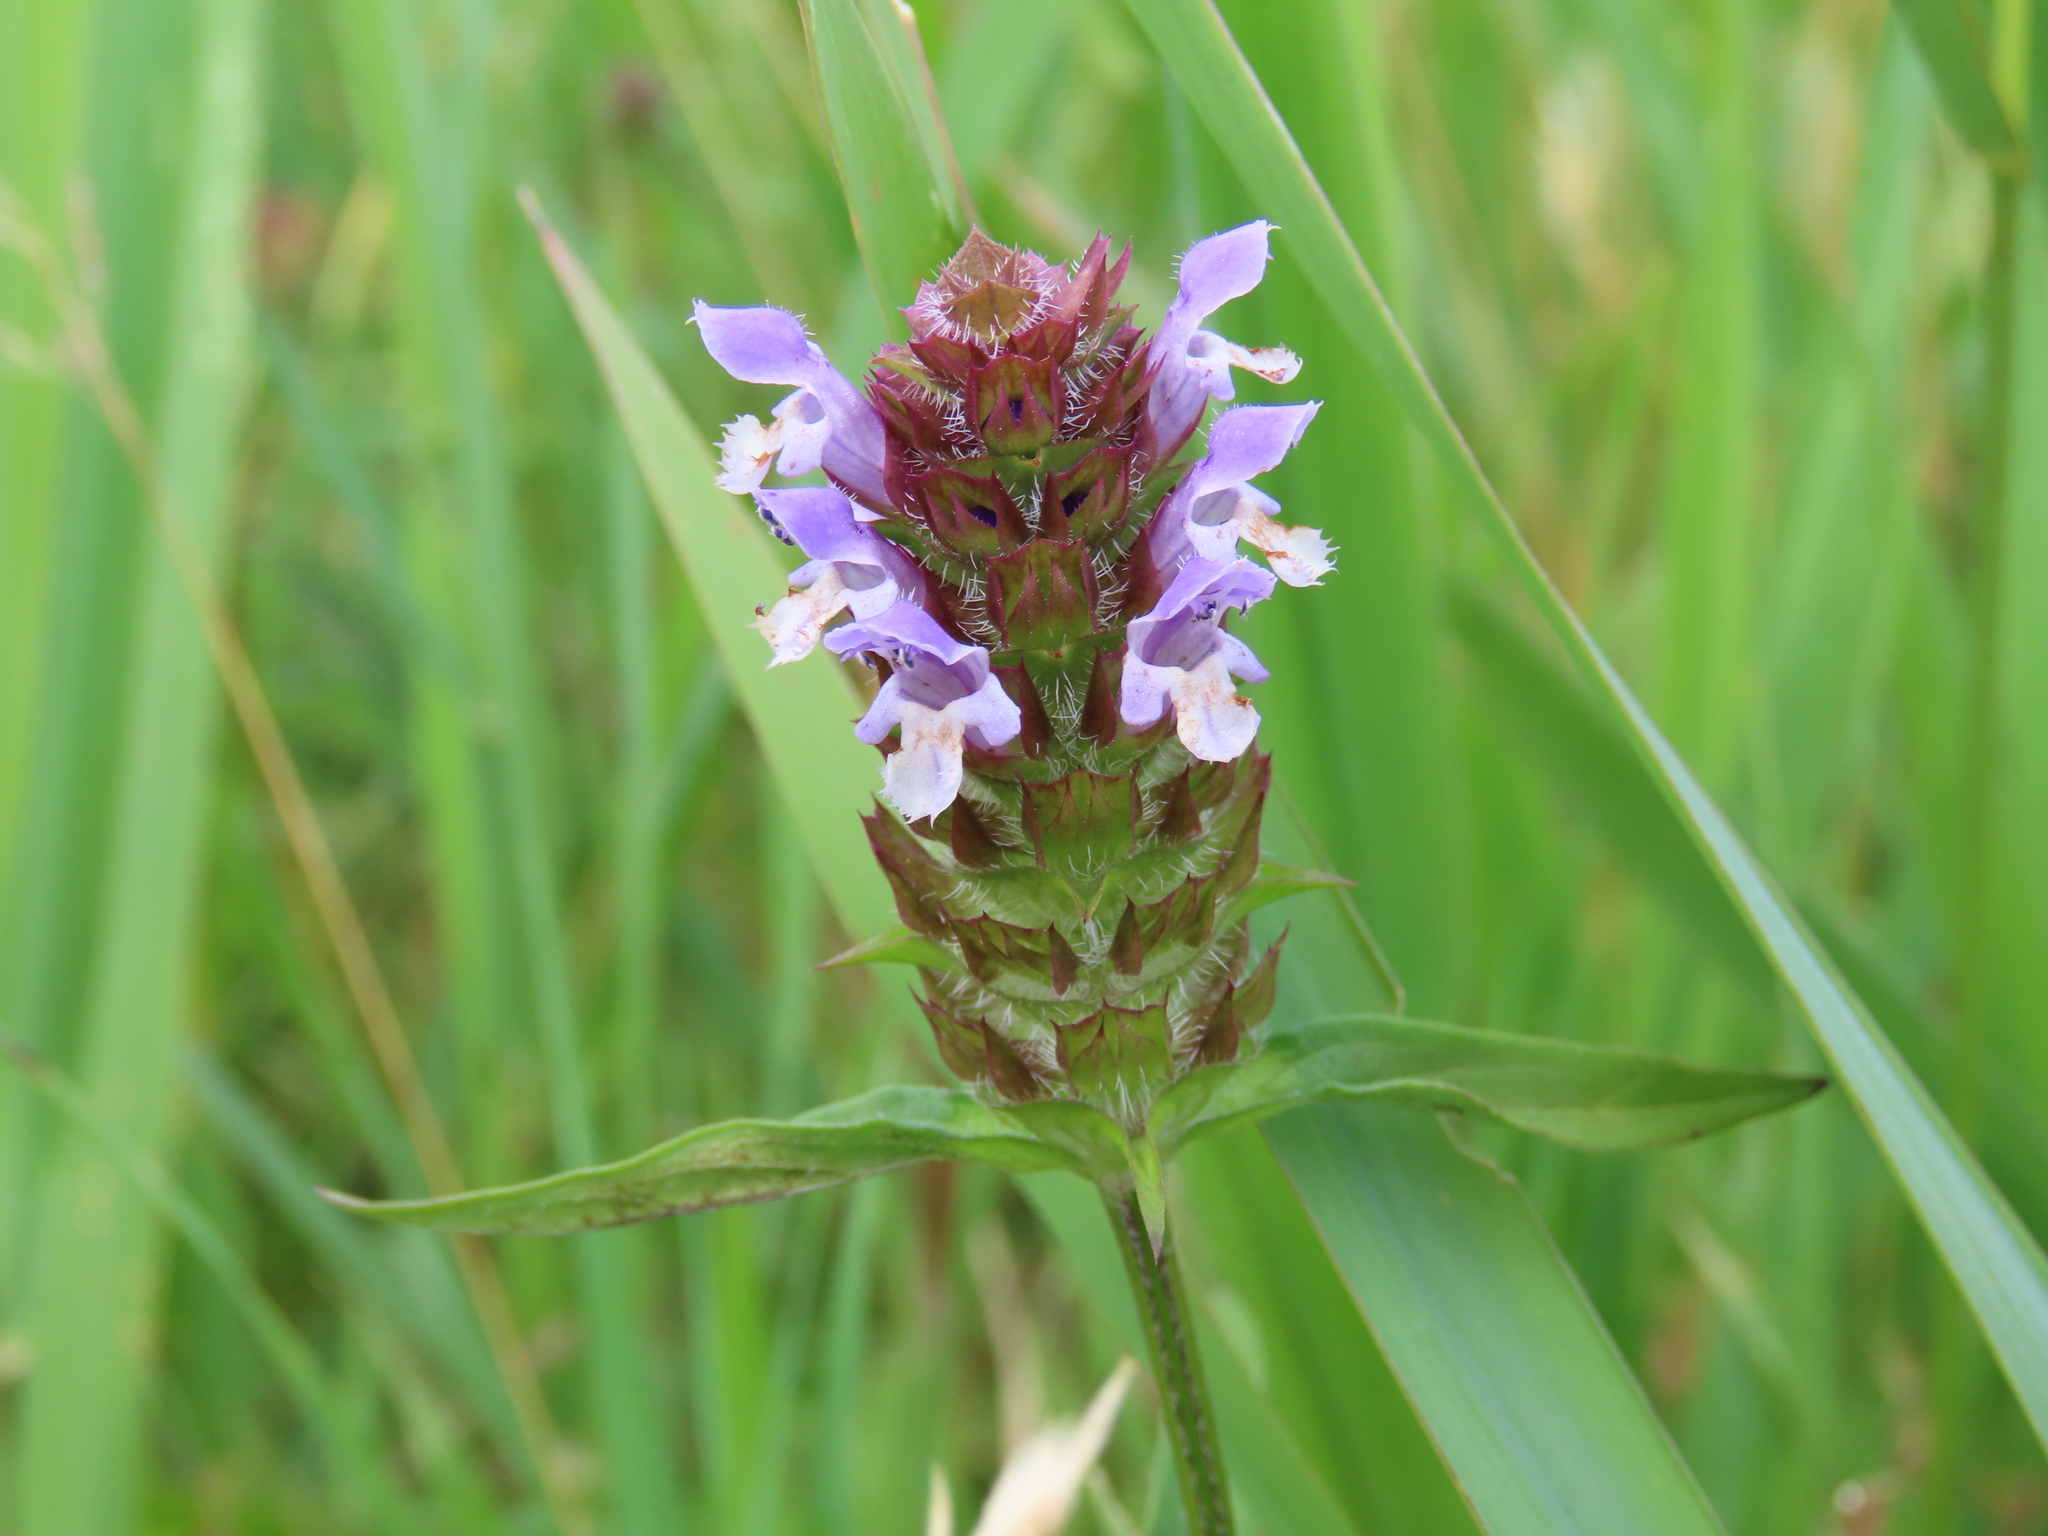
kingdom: Plantae
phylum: Tracheophyta
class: Magnoliopsida
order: Lamiales
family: Lamiaceae
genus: Prunella
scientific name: Prunella vulgaris
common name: Heal-all
